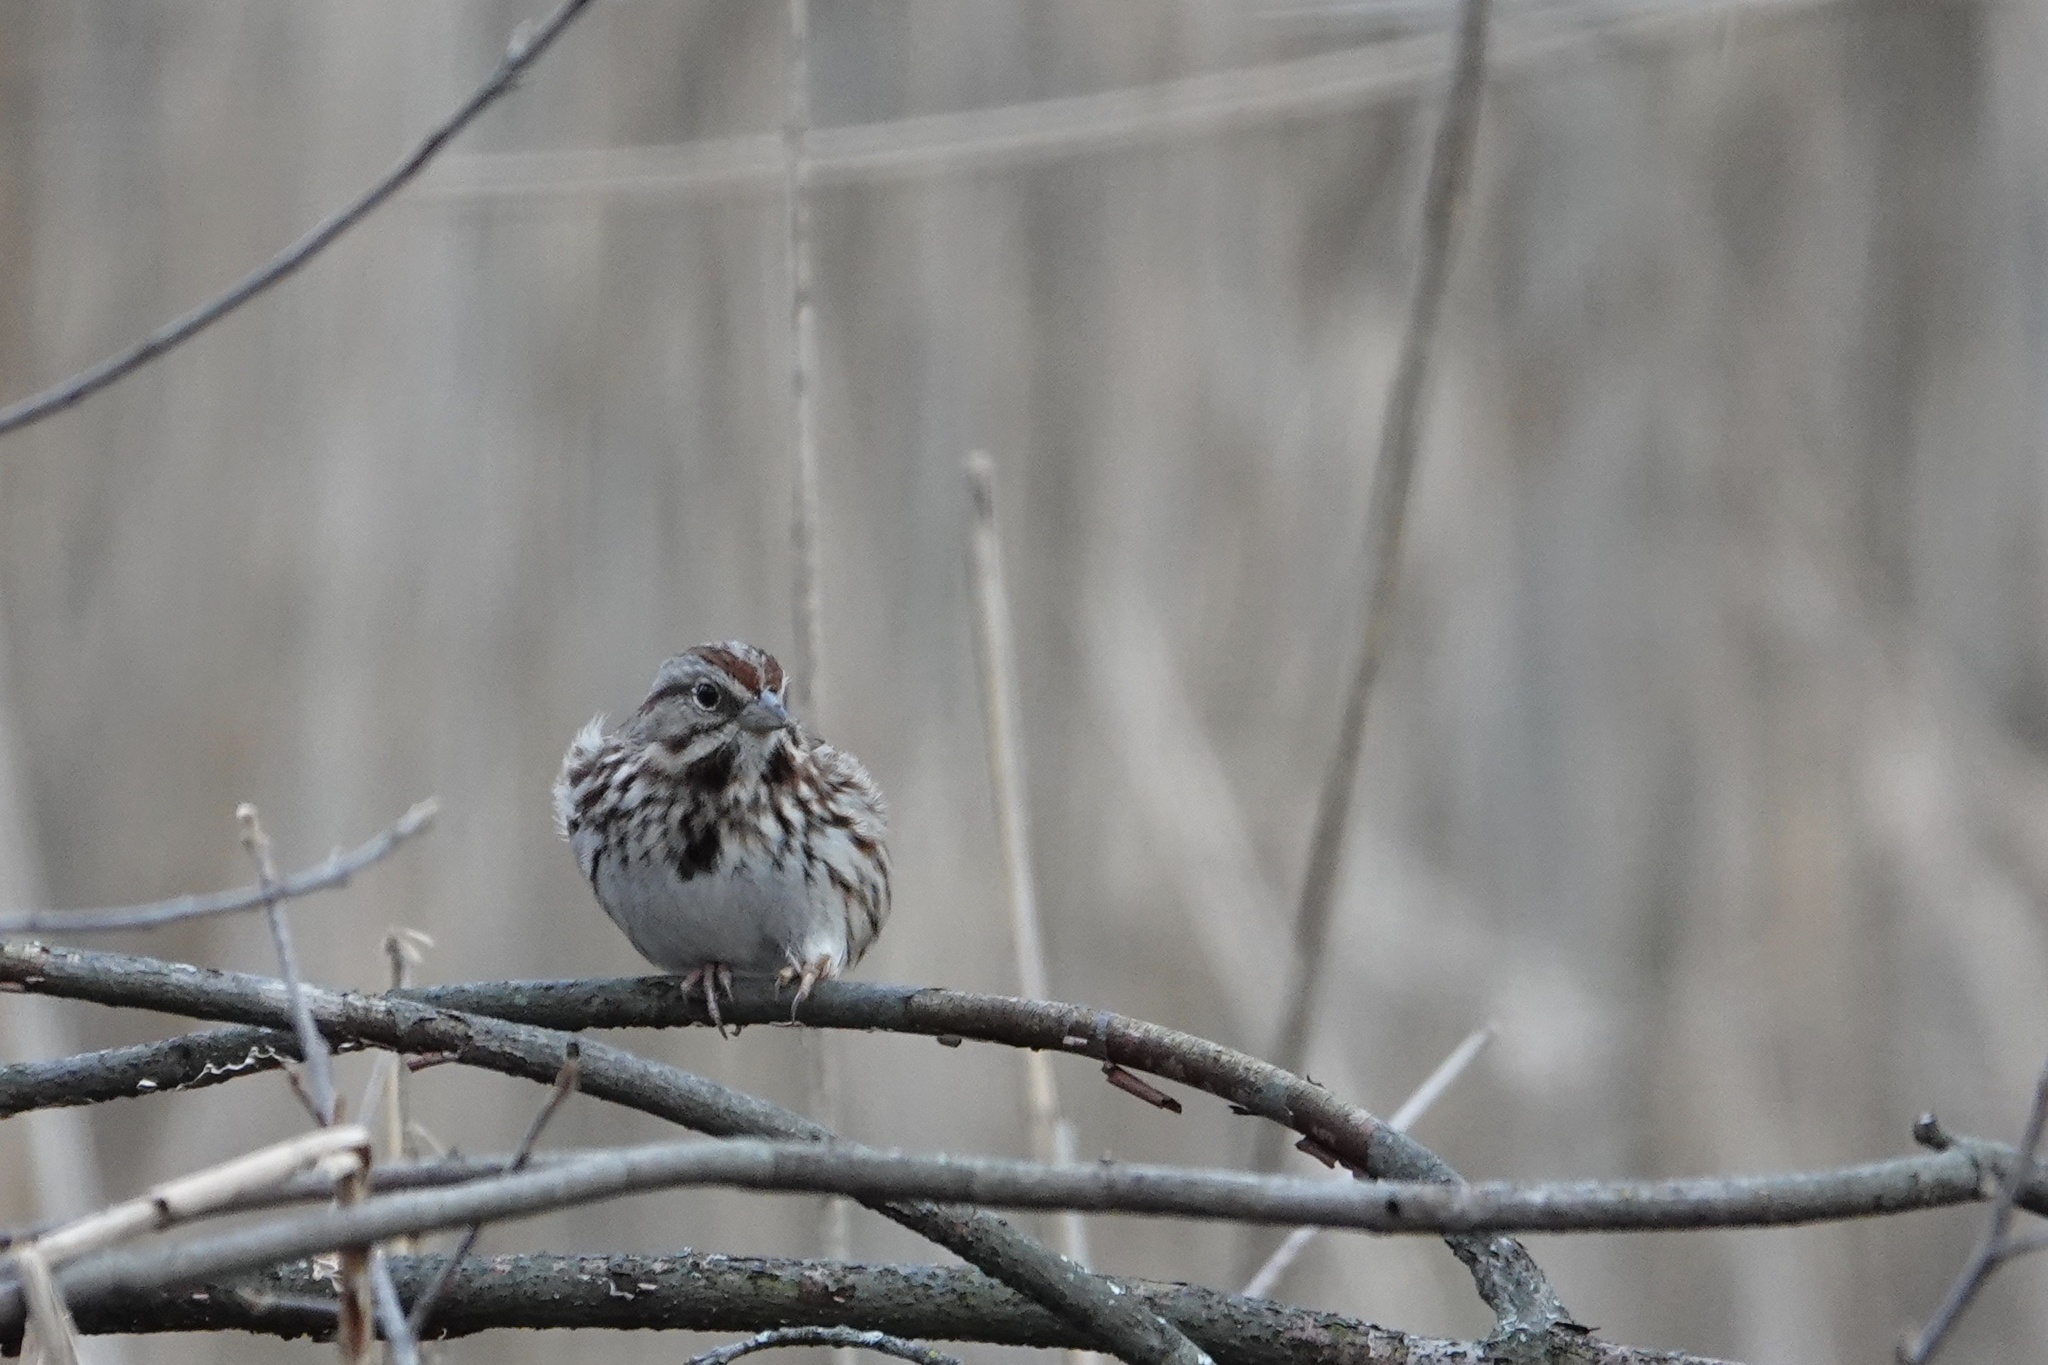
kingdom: Animalia
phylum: Chordata
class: Aves
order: Passeriformes
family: Passerellidae
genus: Melospiza
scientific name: Melospiza melodia
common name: Song sparrow
